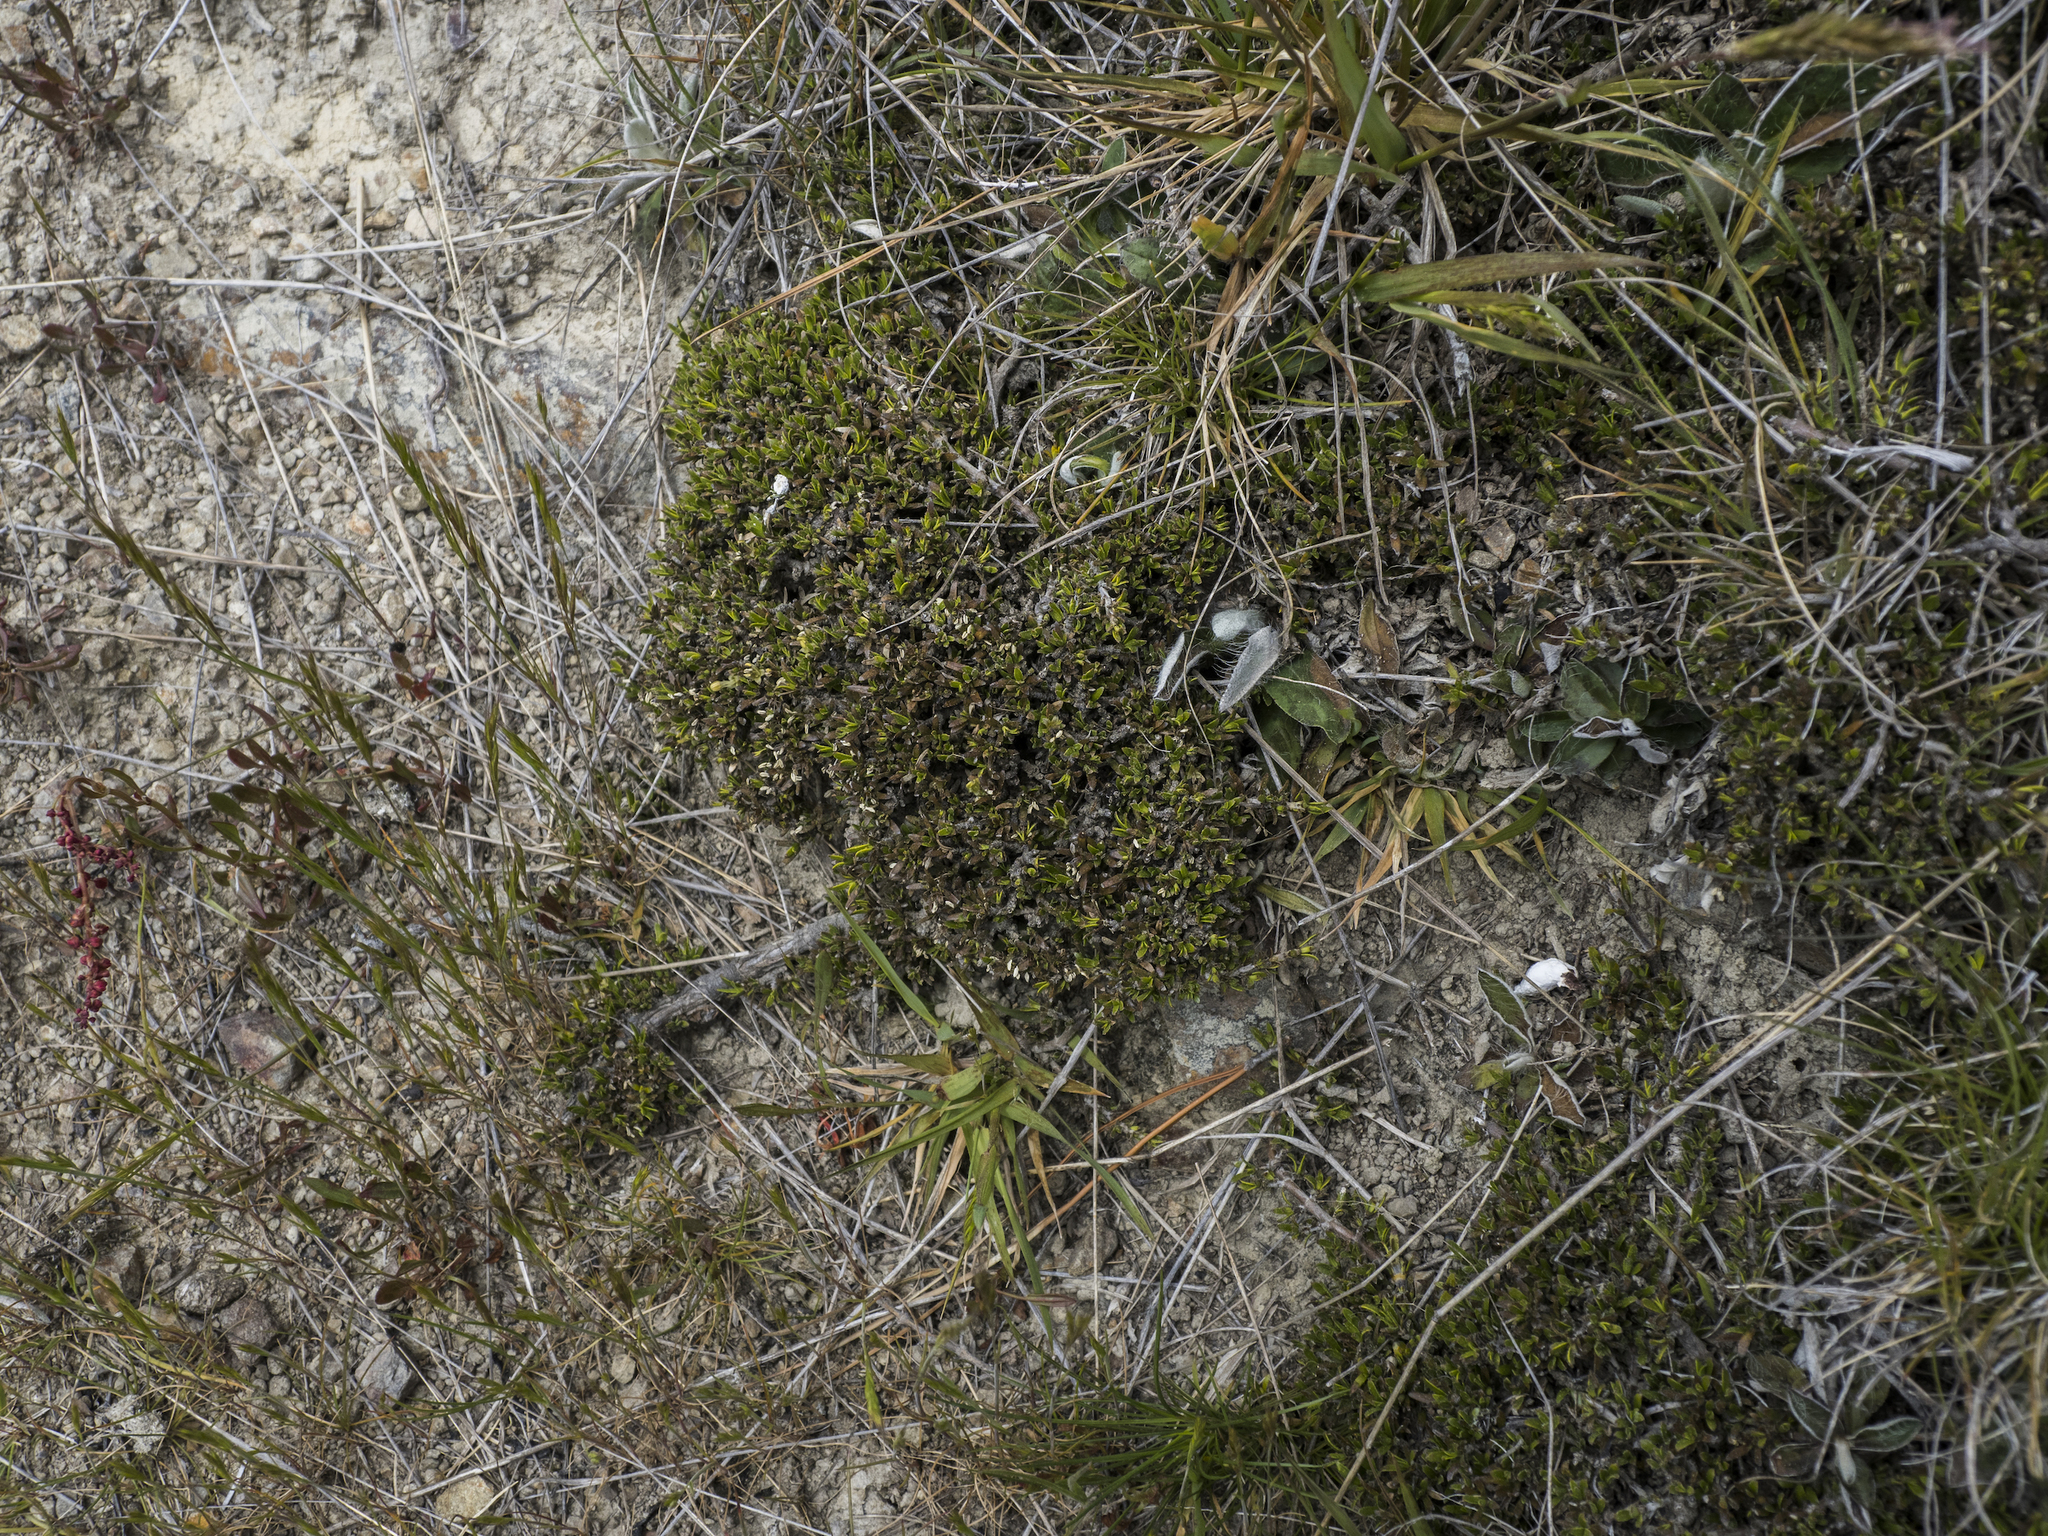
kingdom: Plantae
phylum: Tracheophyta
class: Magnoliopsida
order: Gentianales
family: Rubiaceae
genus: Coprosma
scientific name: Coprosma petriei
